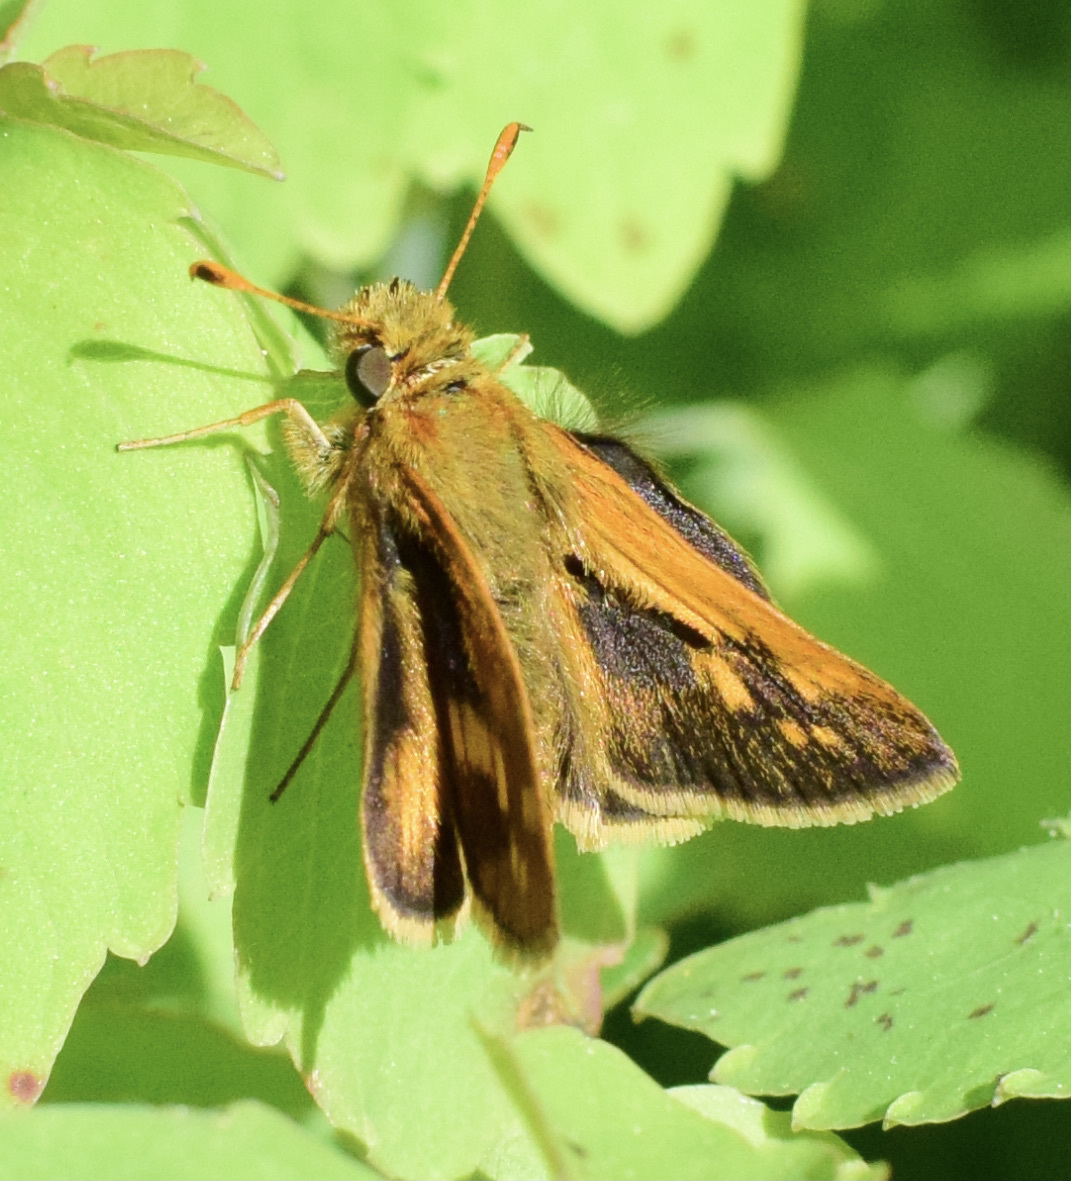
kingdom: Animalia
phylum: Arthropoda
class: Insecta
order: Lepidoptera
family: Hesperiidae
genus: Polites
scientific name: Polites coras
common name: Peck's skipper
